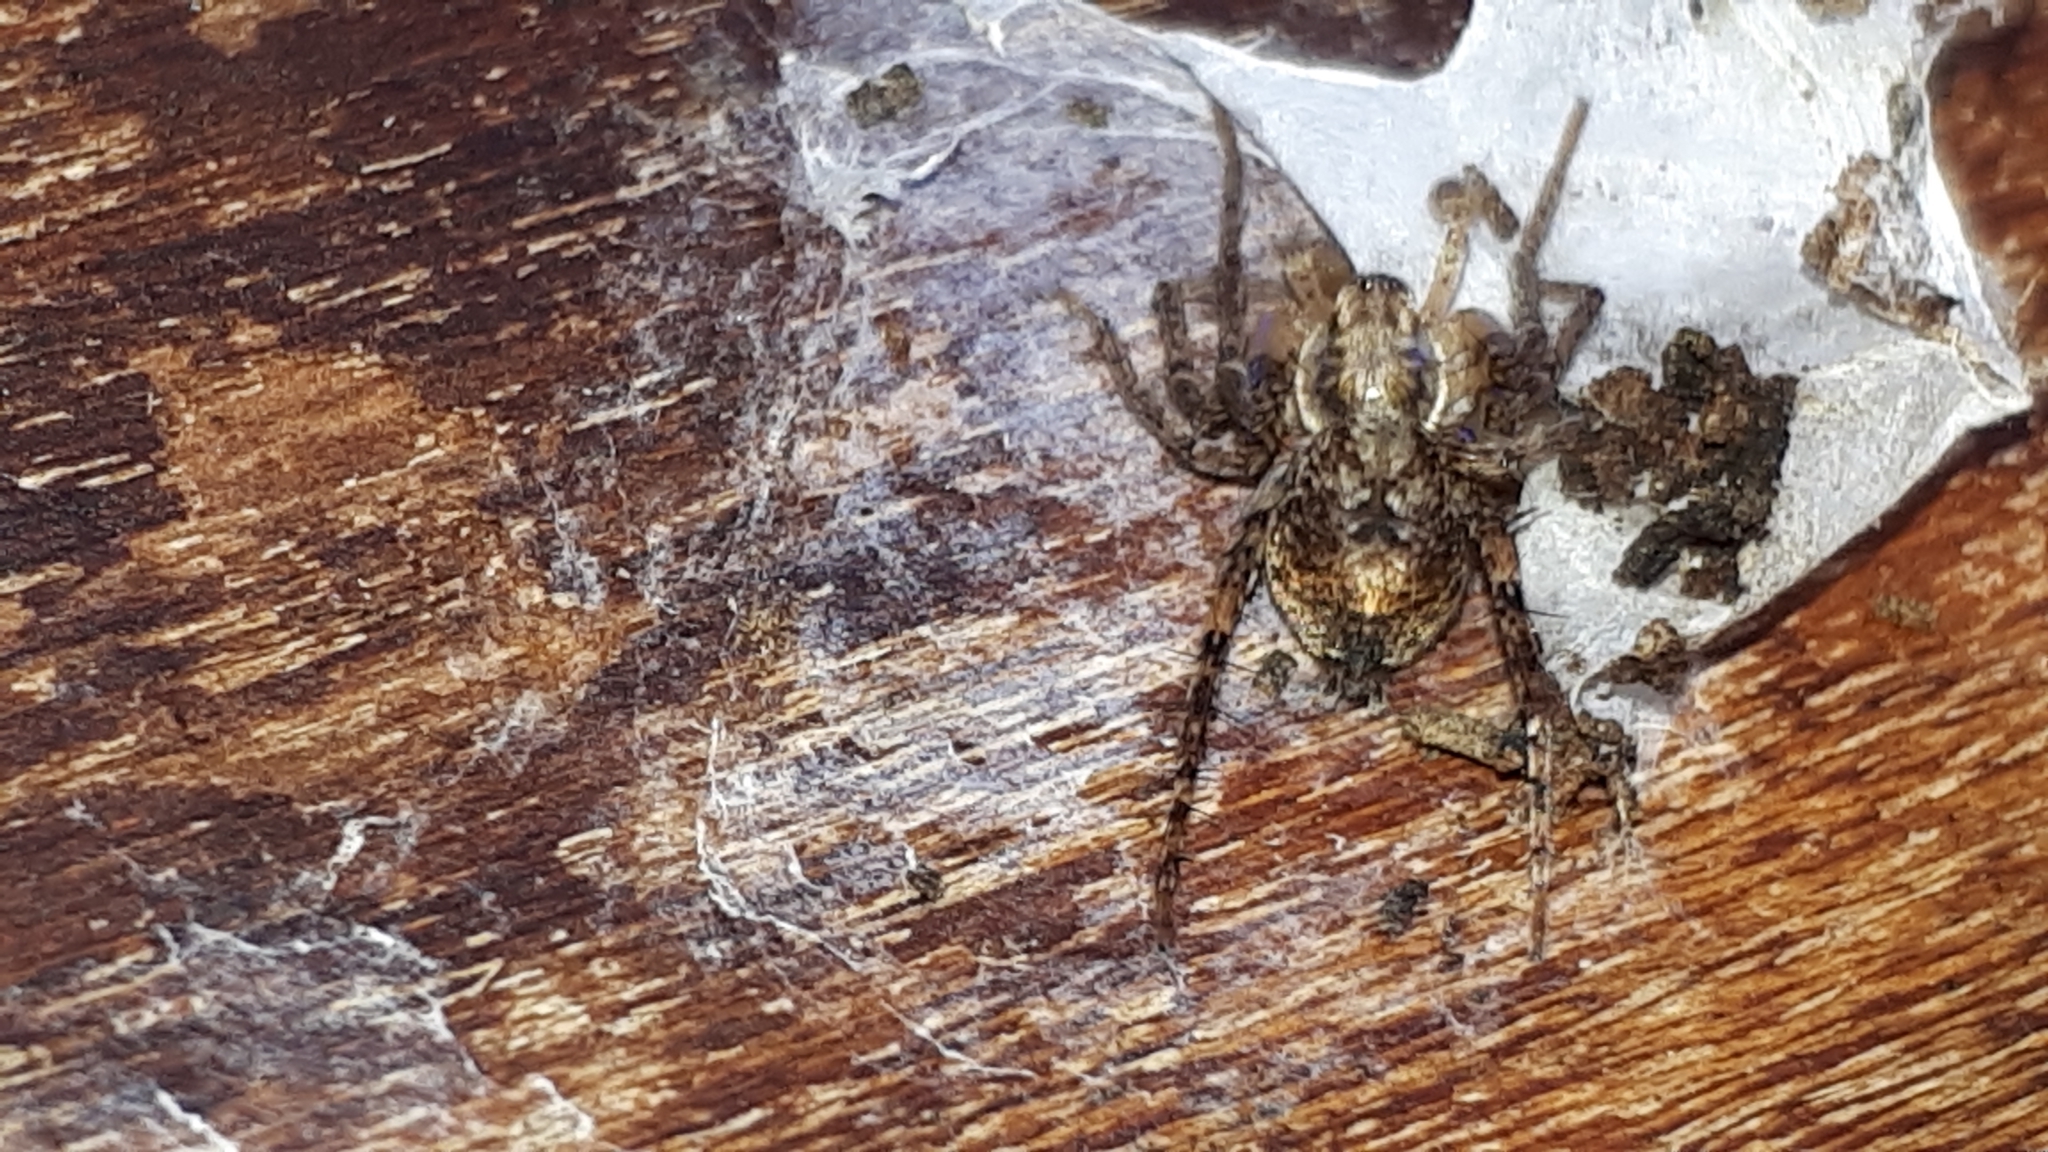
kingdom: Animalia
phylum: Arthropoda
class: Arachnida
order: Araneae
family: Anyphaenidae
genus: Anyphaena
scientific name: Anyphaena accentuata
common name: Buzzing spider
